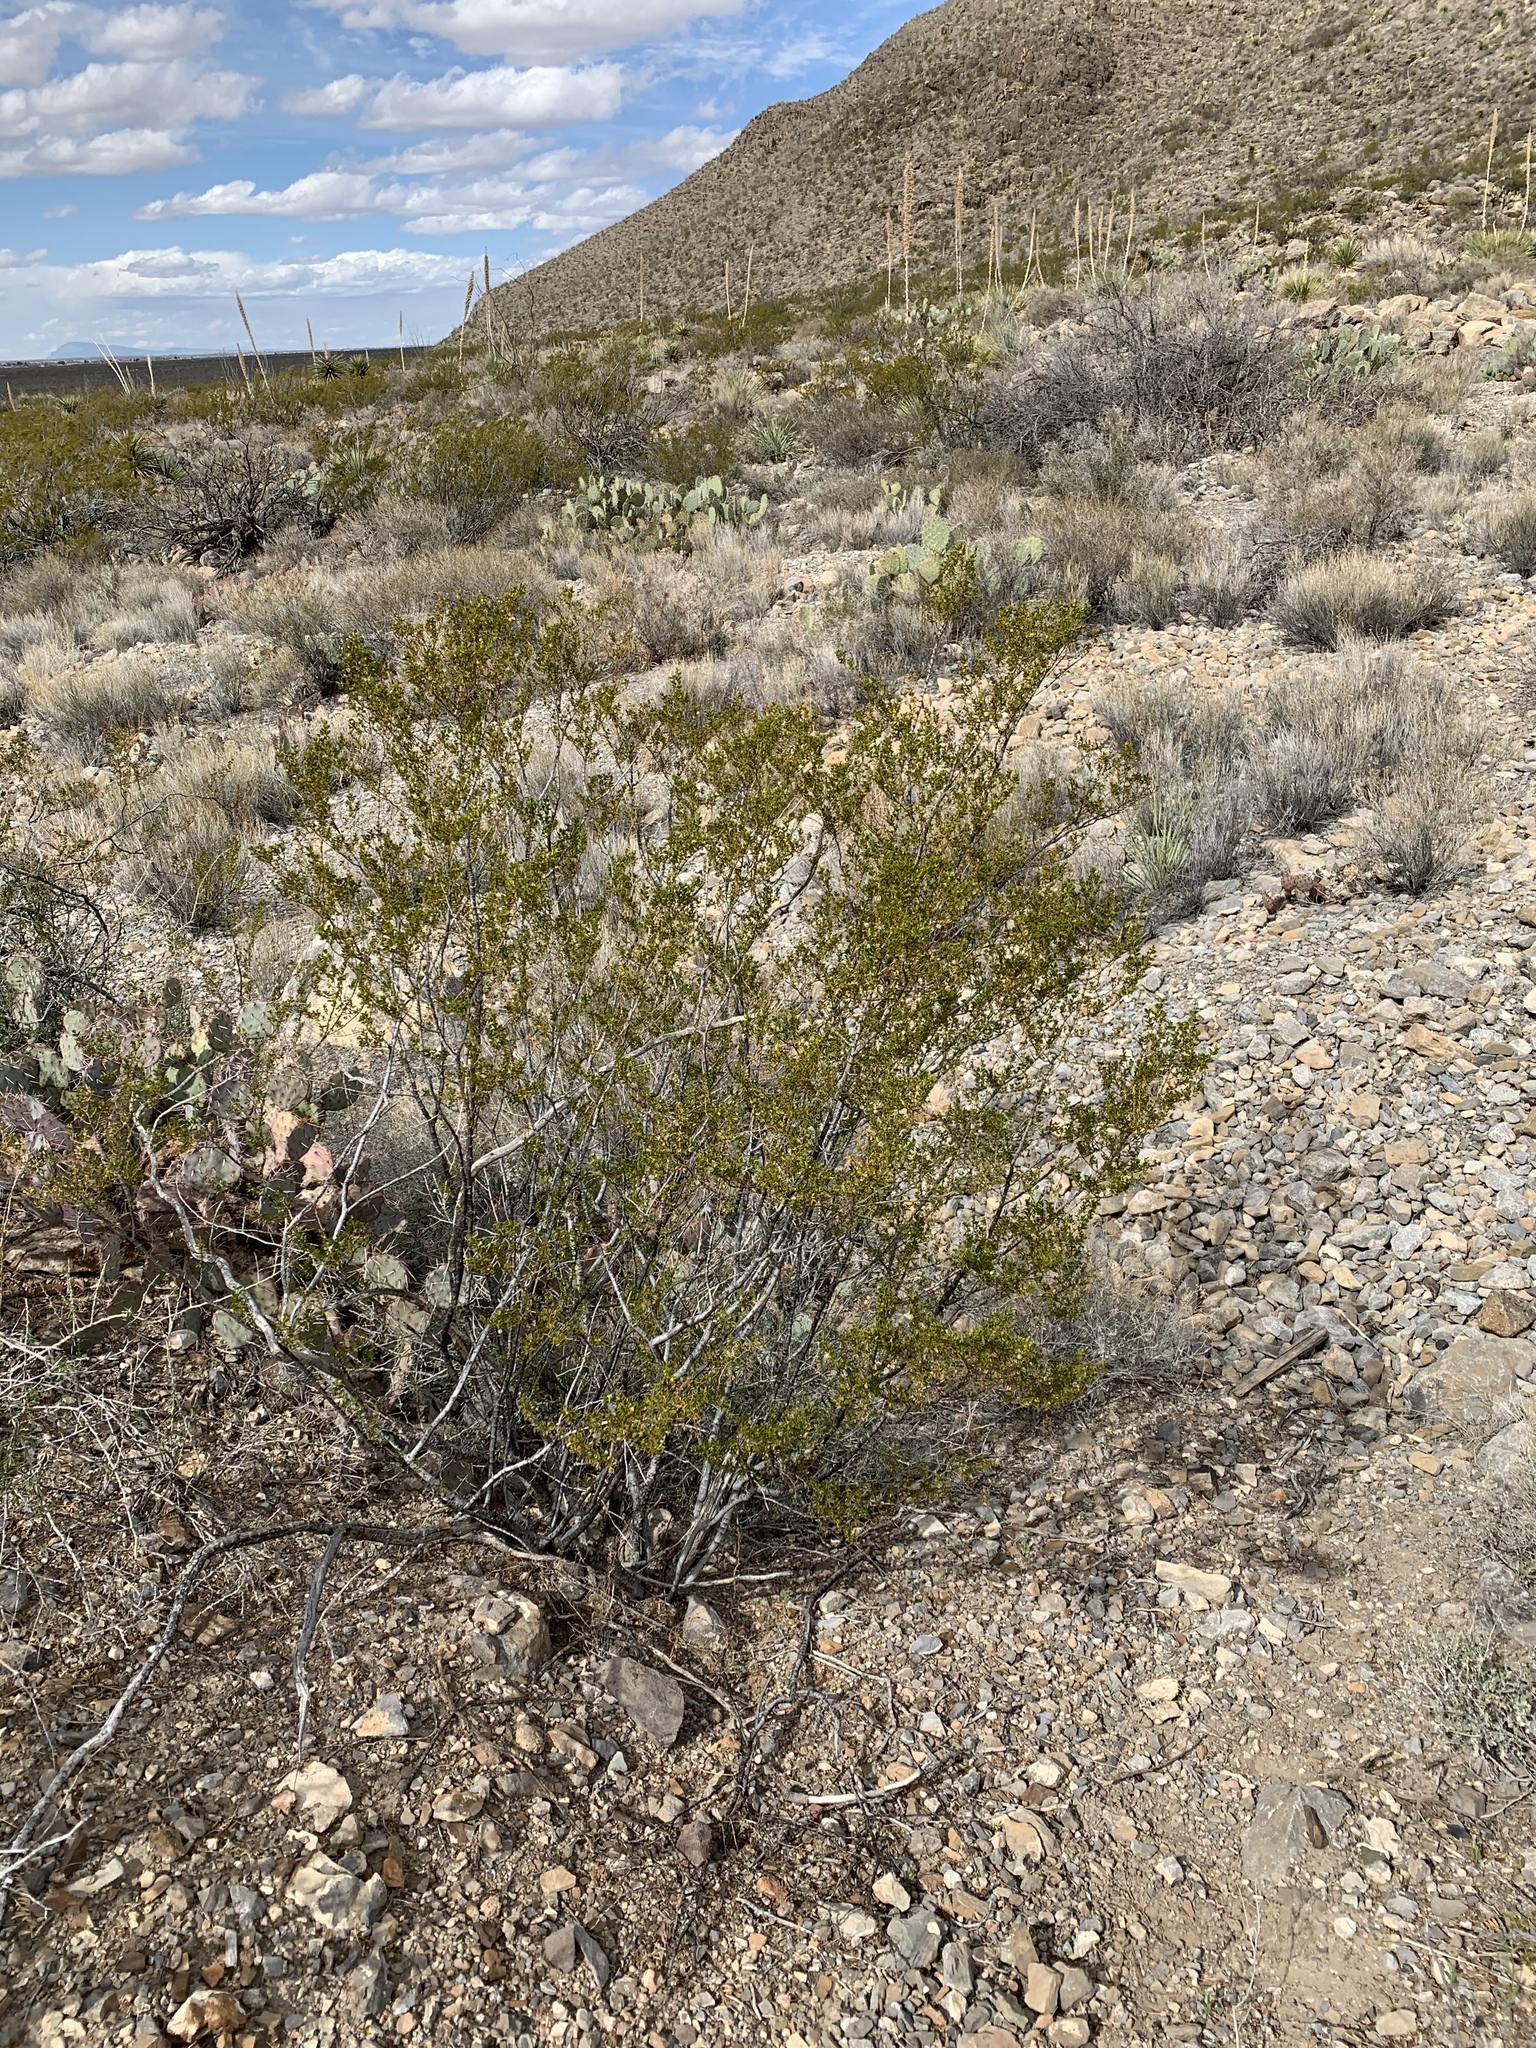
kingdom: Plantae
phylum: Tracheophyta
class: Magnoliopsida
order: Zygophyllales
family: Zygophyllaceae
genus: Larrea
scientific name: Larrea tridentata
